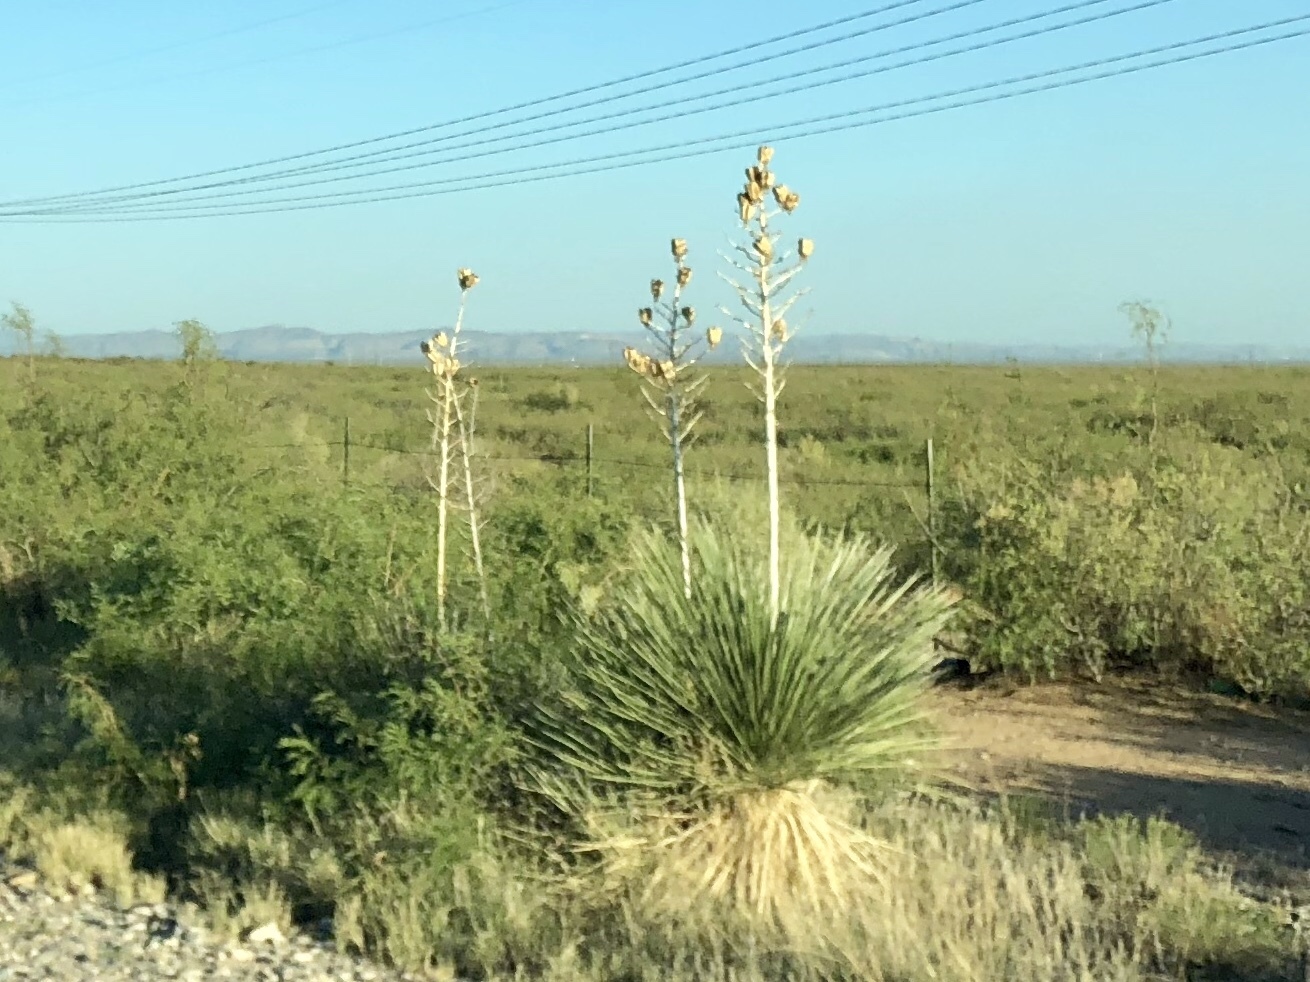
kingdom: Plantae
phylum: Tracheophyta
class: Liliopsida
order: Asparagales
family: Asparagaceae
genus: Yucca
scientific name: Yucca elata
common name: Palmella
